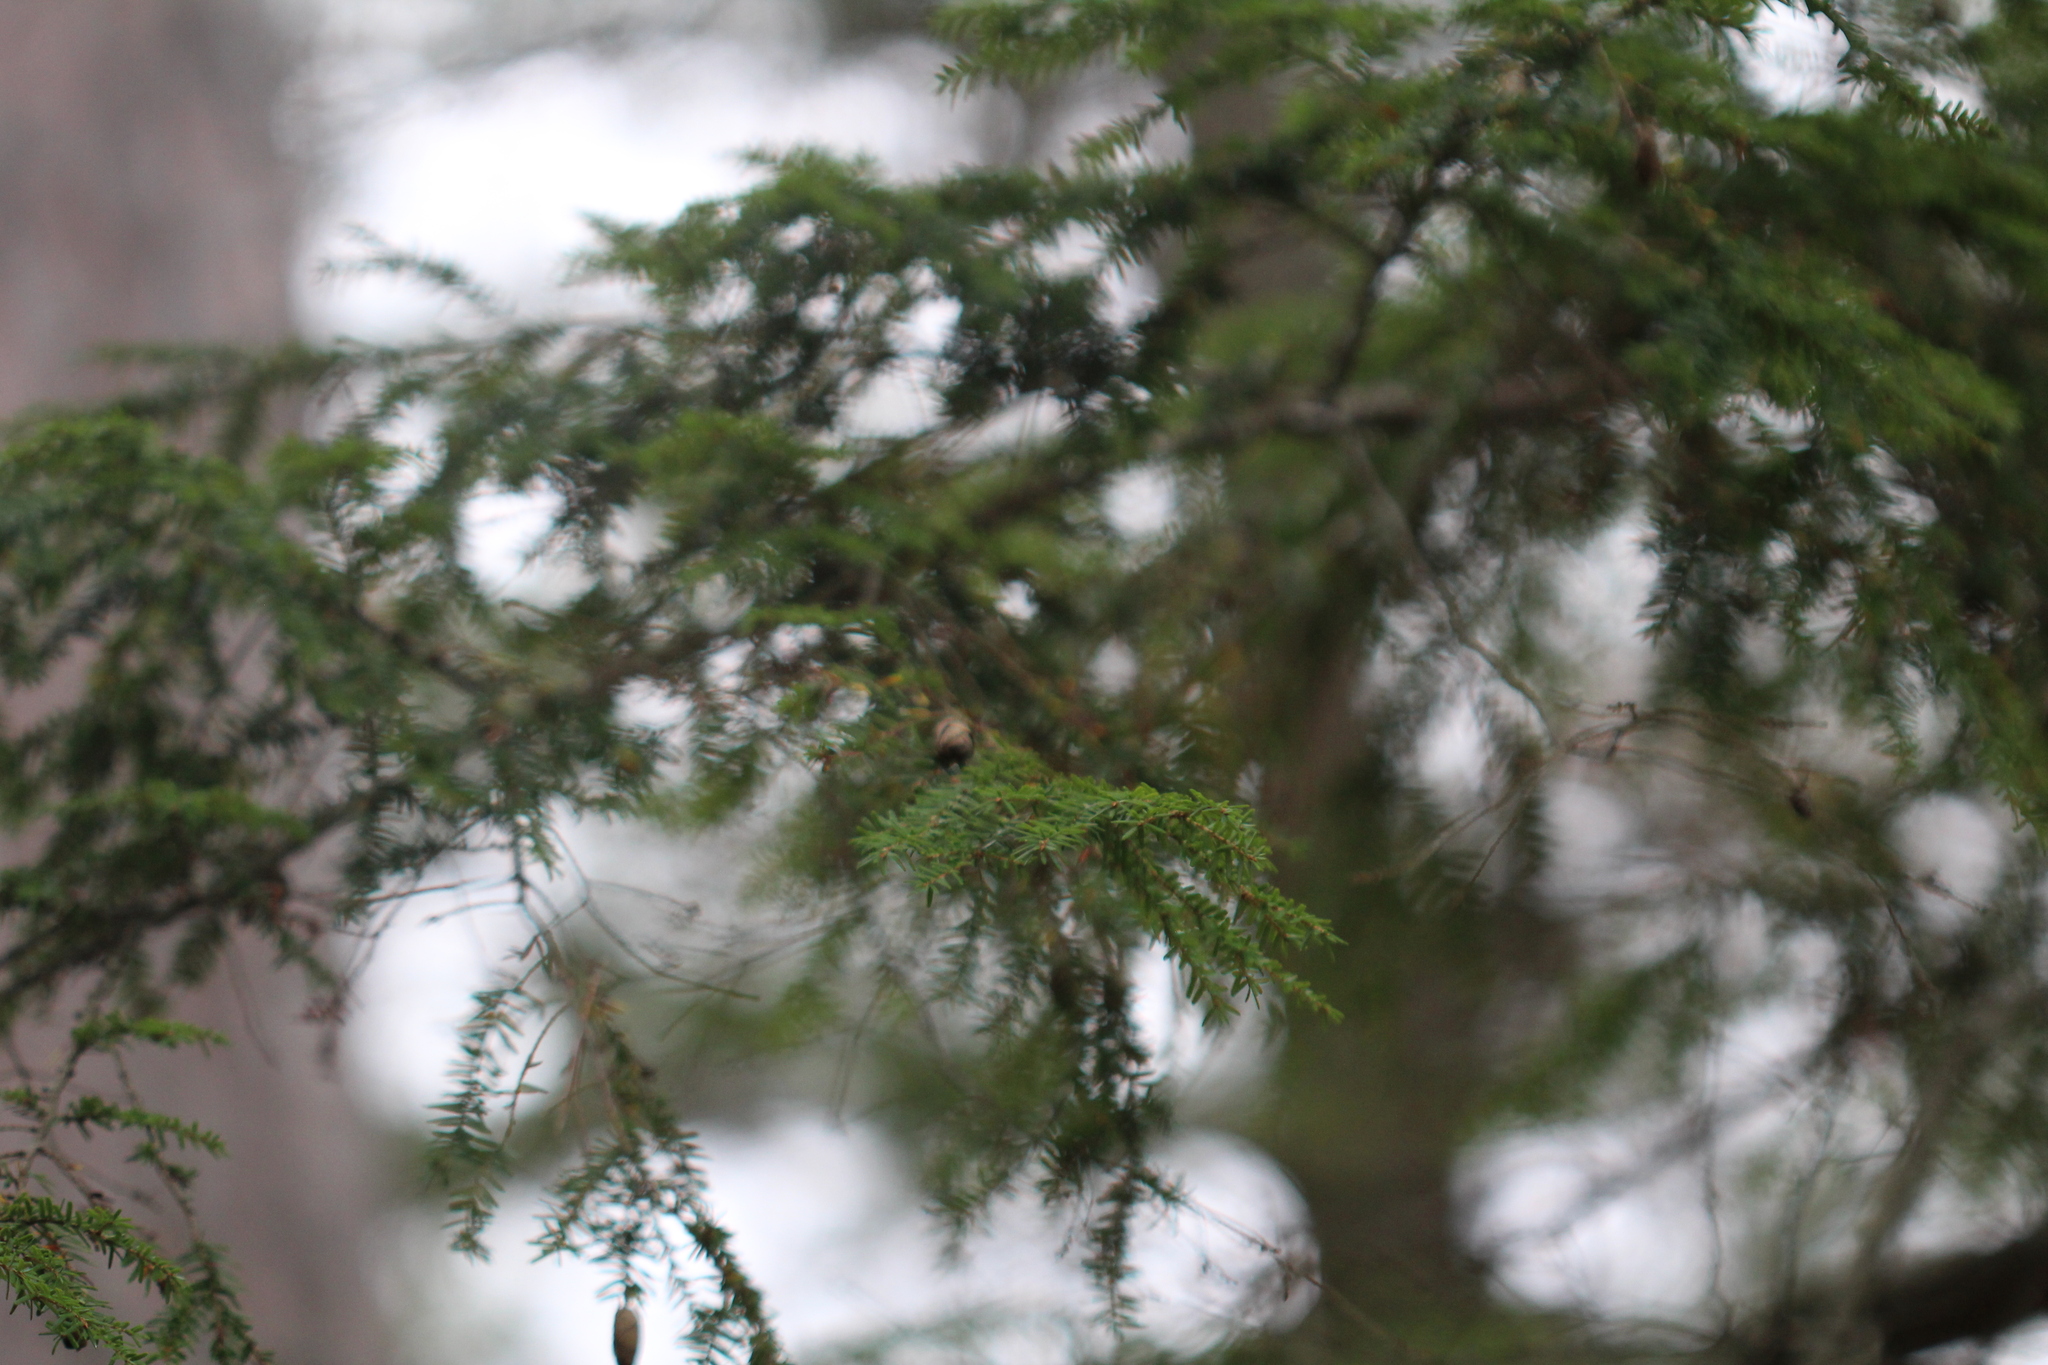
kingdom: Plantae
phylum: Tracheophyta
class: Pinopsida
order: Pinales
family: Pinaceae
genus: Tsuga
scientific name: Tsuga canadensis
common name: Eastern hemlock
